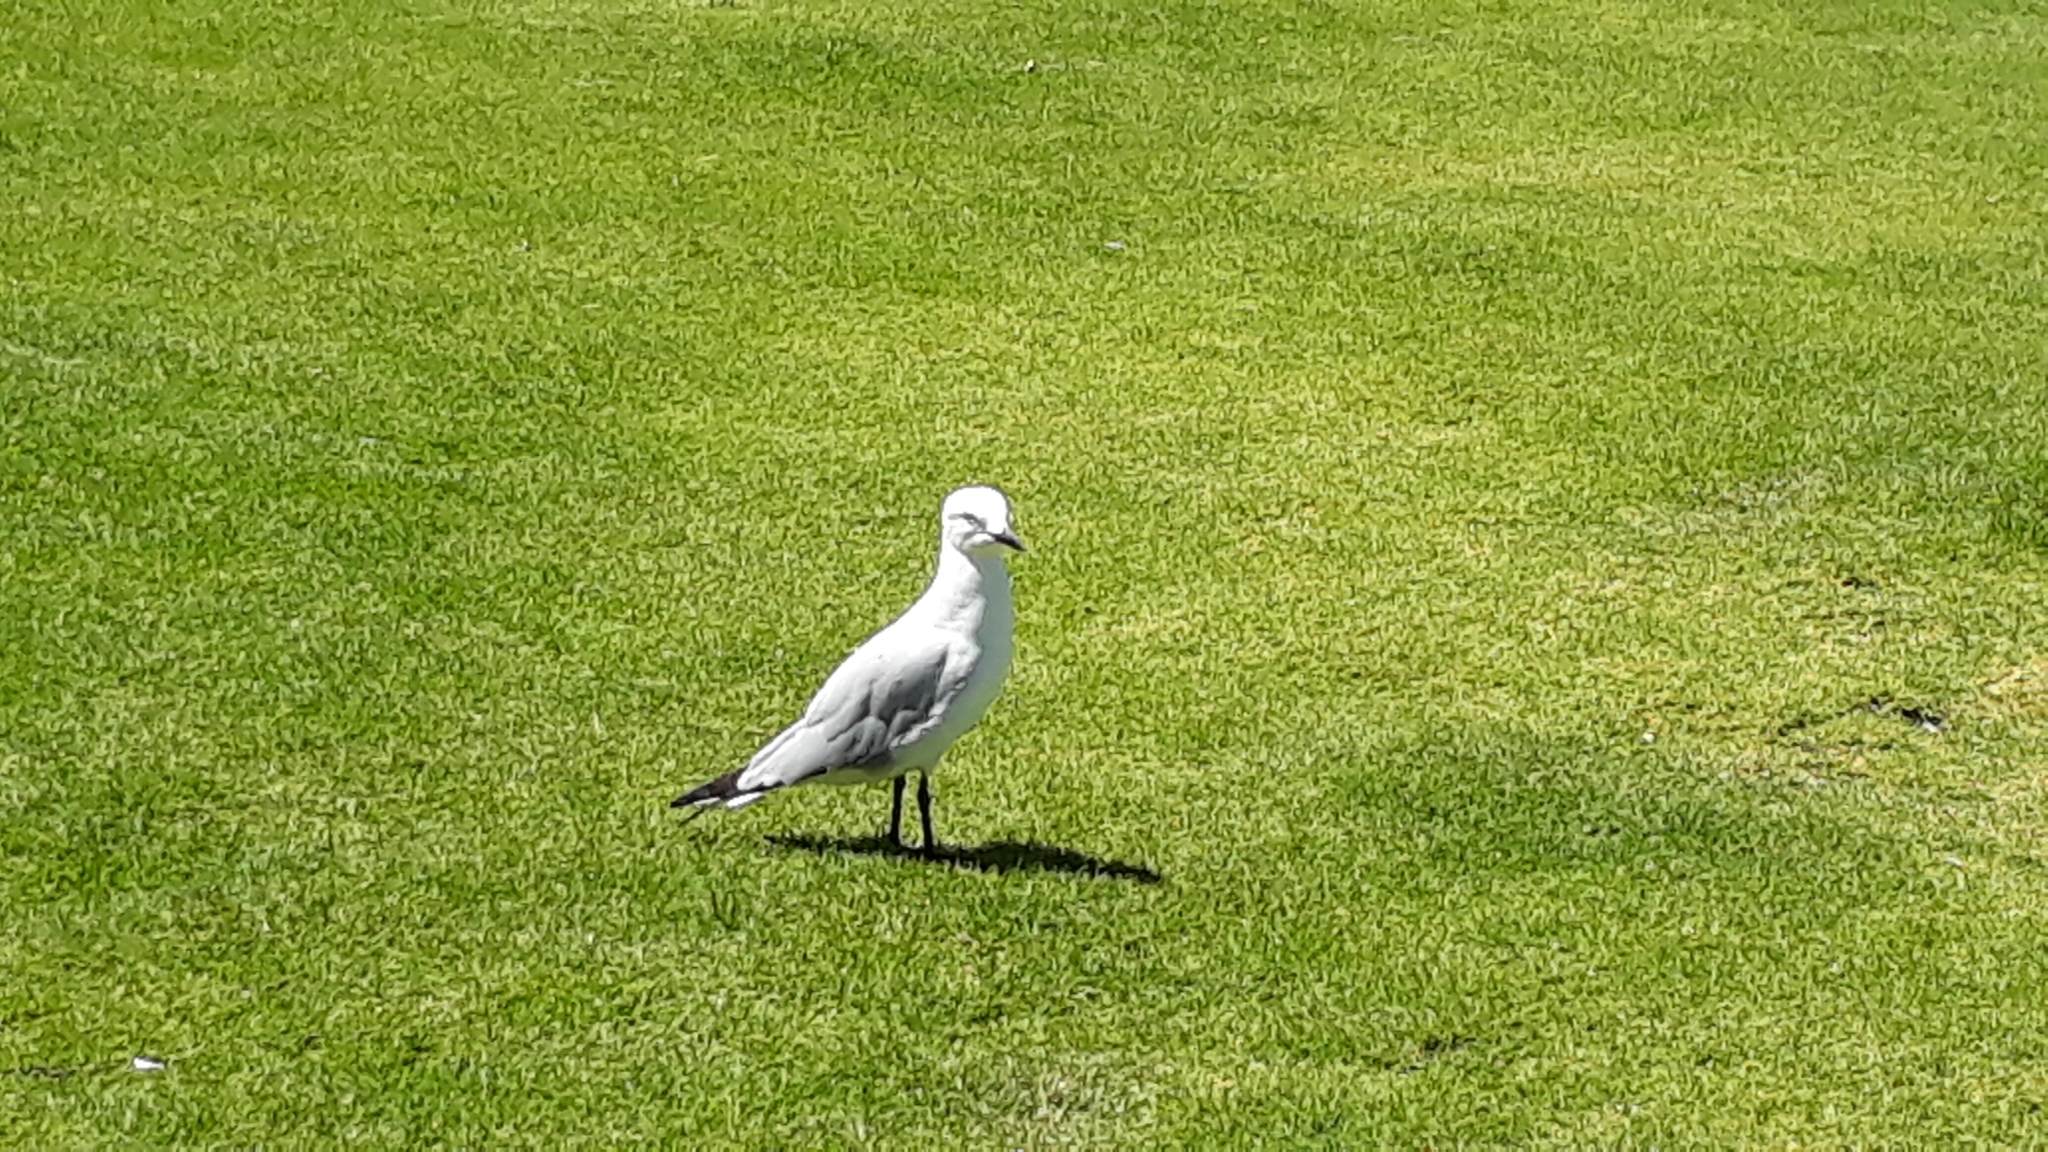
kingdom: Animalia
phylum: Chordata
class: Aves
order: Charadriiformes
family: Laridae
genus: Chroicocephalus
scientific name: Chroicocephalus novaehollandiae
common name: Silver gull
